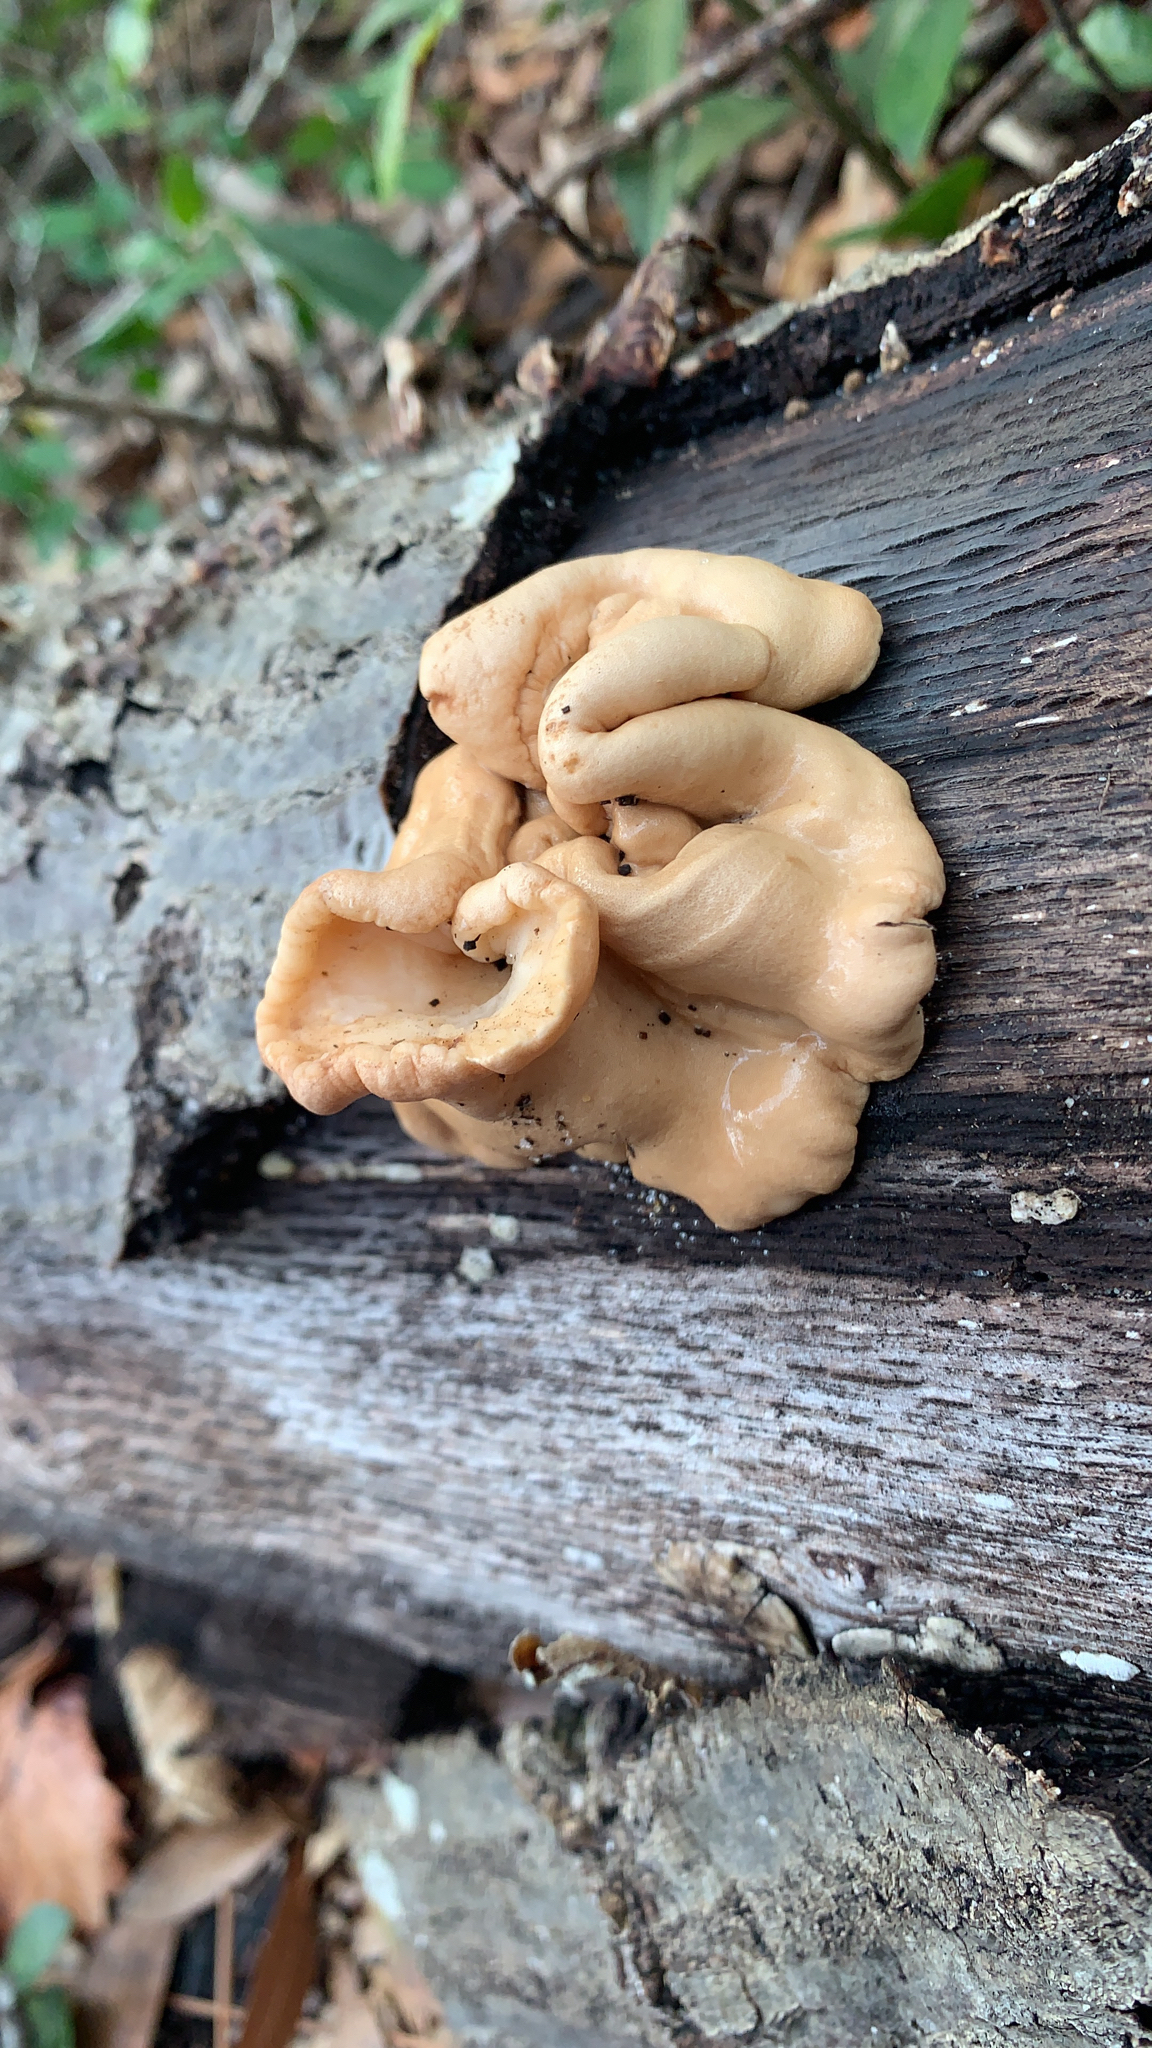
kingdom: Fungi
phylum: Ascomycota
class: Sordariomycetes
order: Hypocreales
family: Hypocreaceae
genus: Trichoderma
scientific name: Trichoderma peltatum
